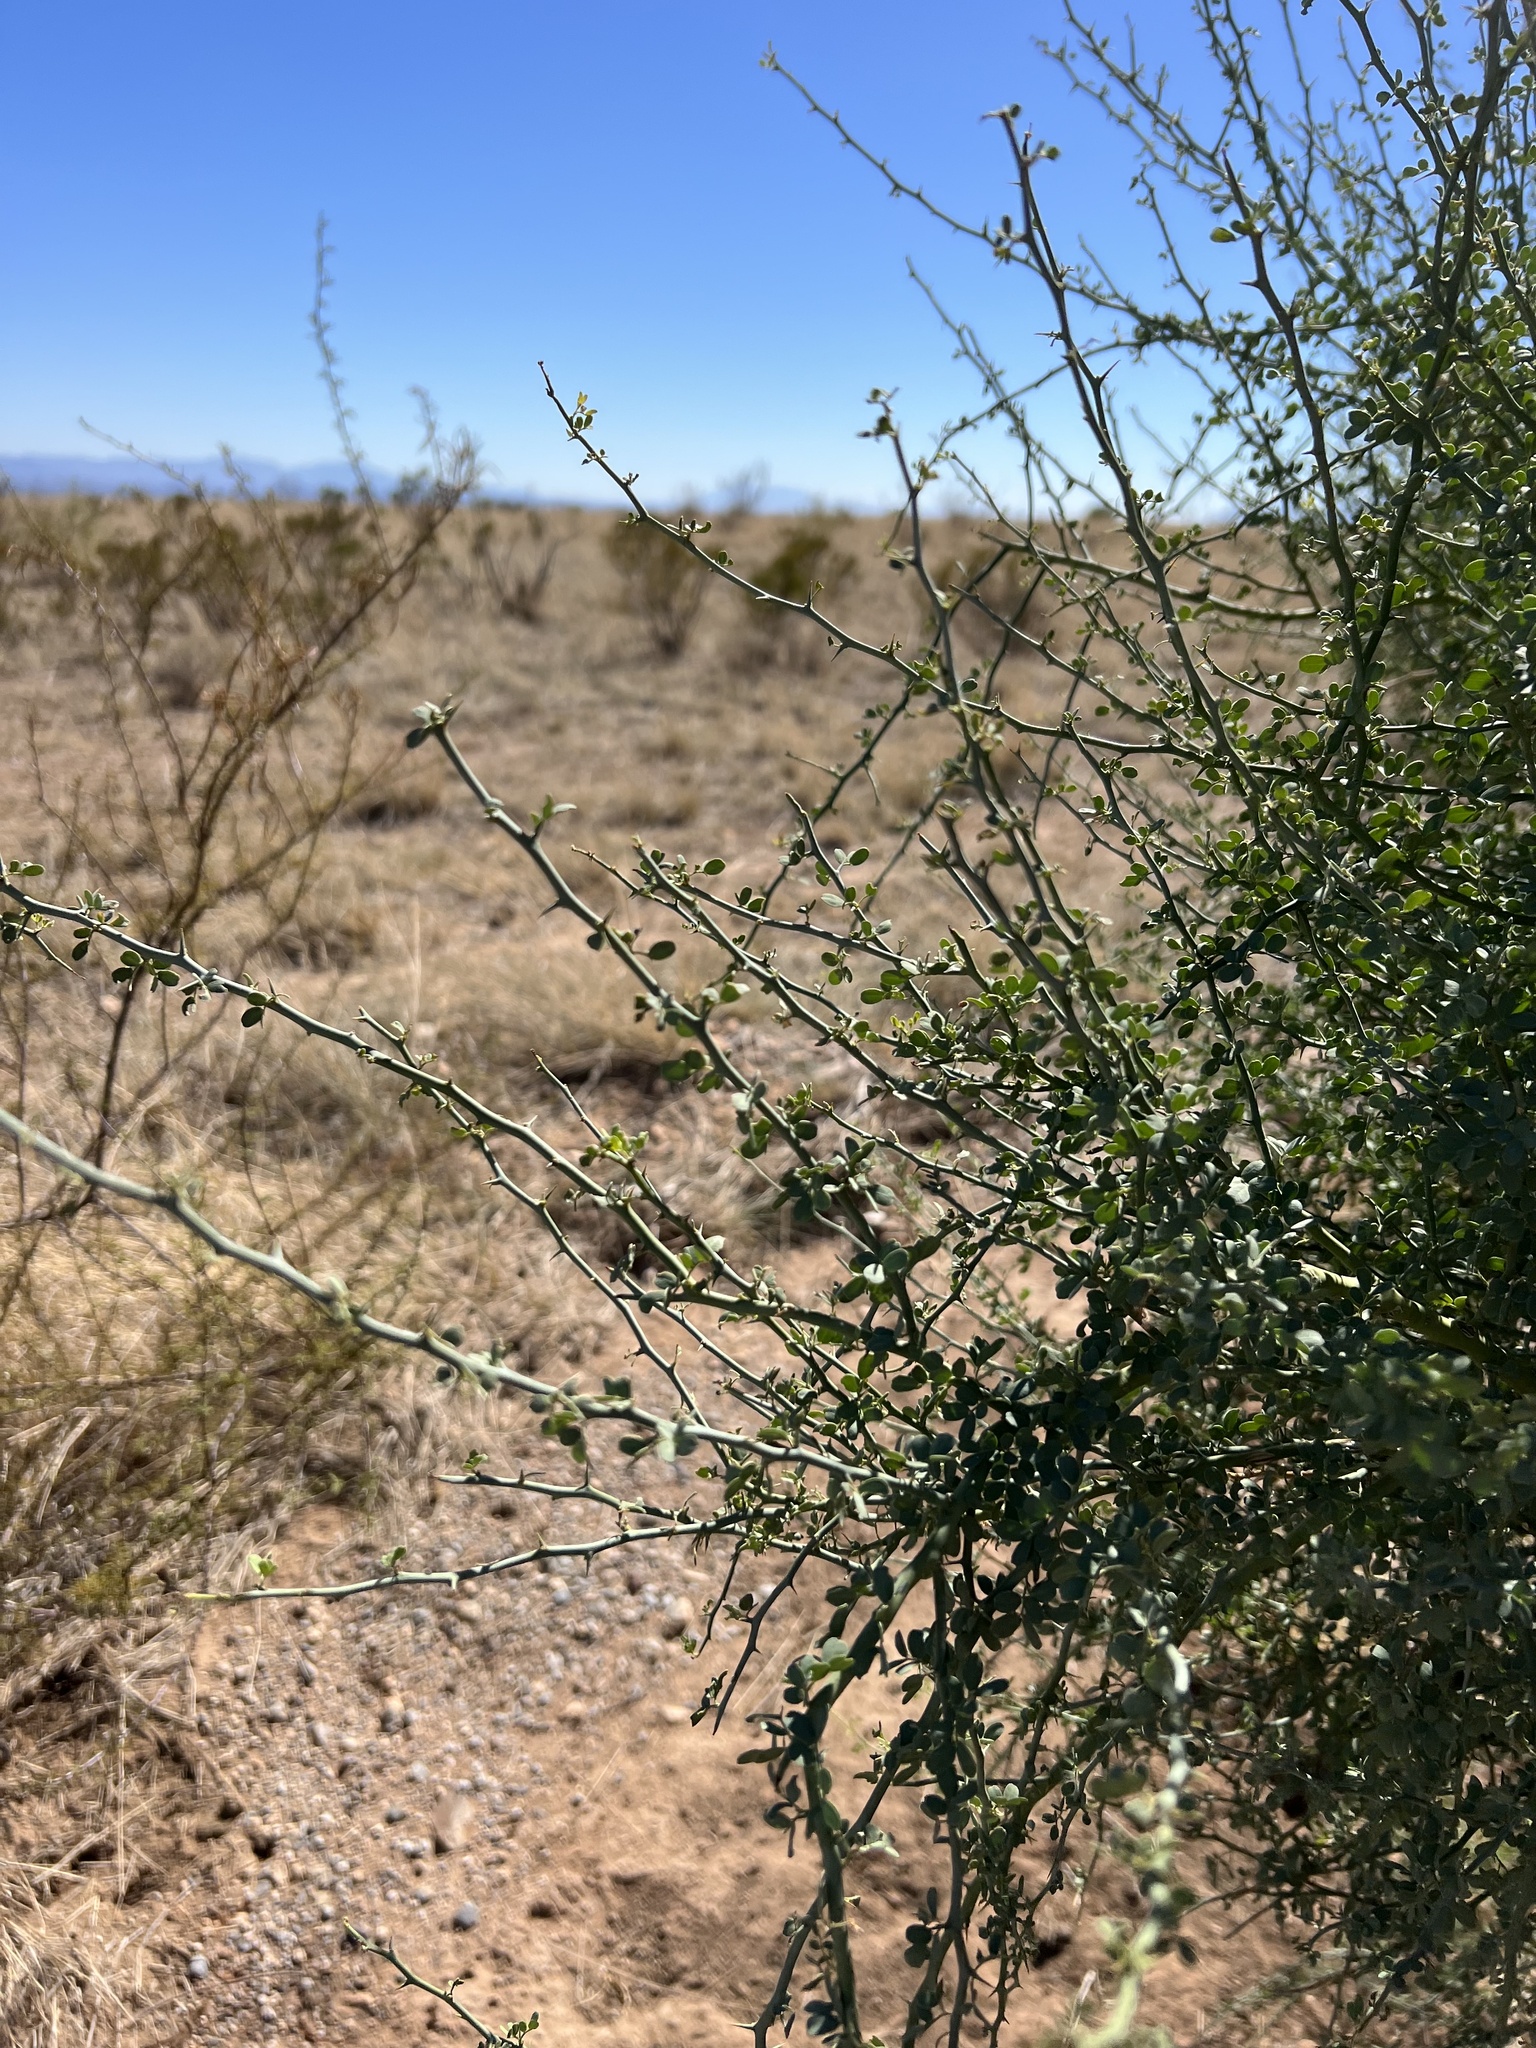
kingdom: Plantae
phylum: Tracheophyta
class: Magnoliopsida
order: Fabales
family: Fabaceae
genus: Parkinsonia
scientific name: Parkinsonia florida
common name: Blue paloverde
